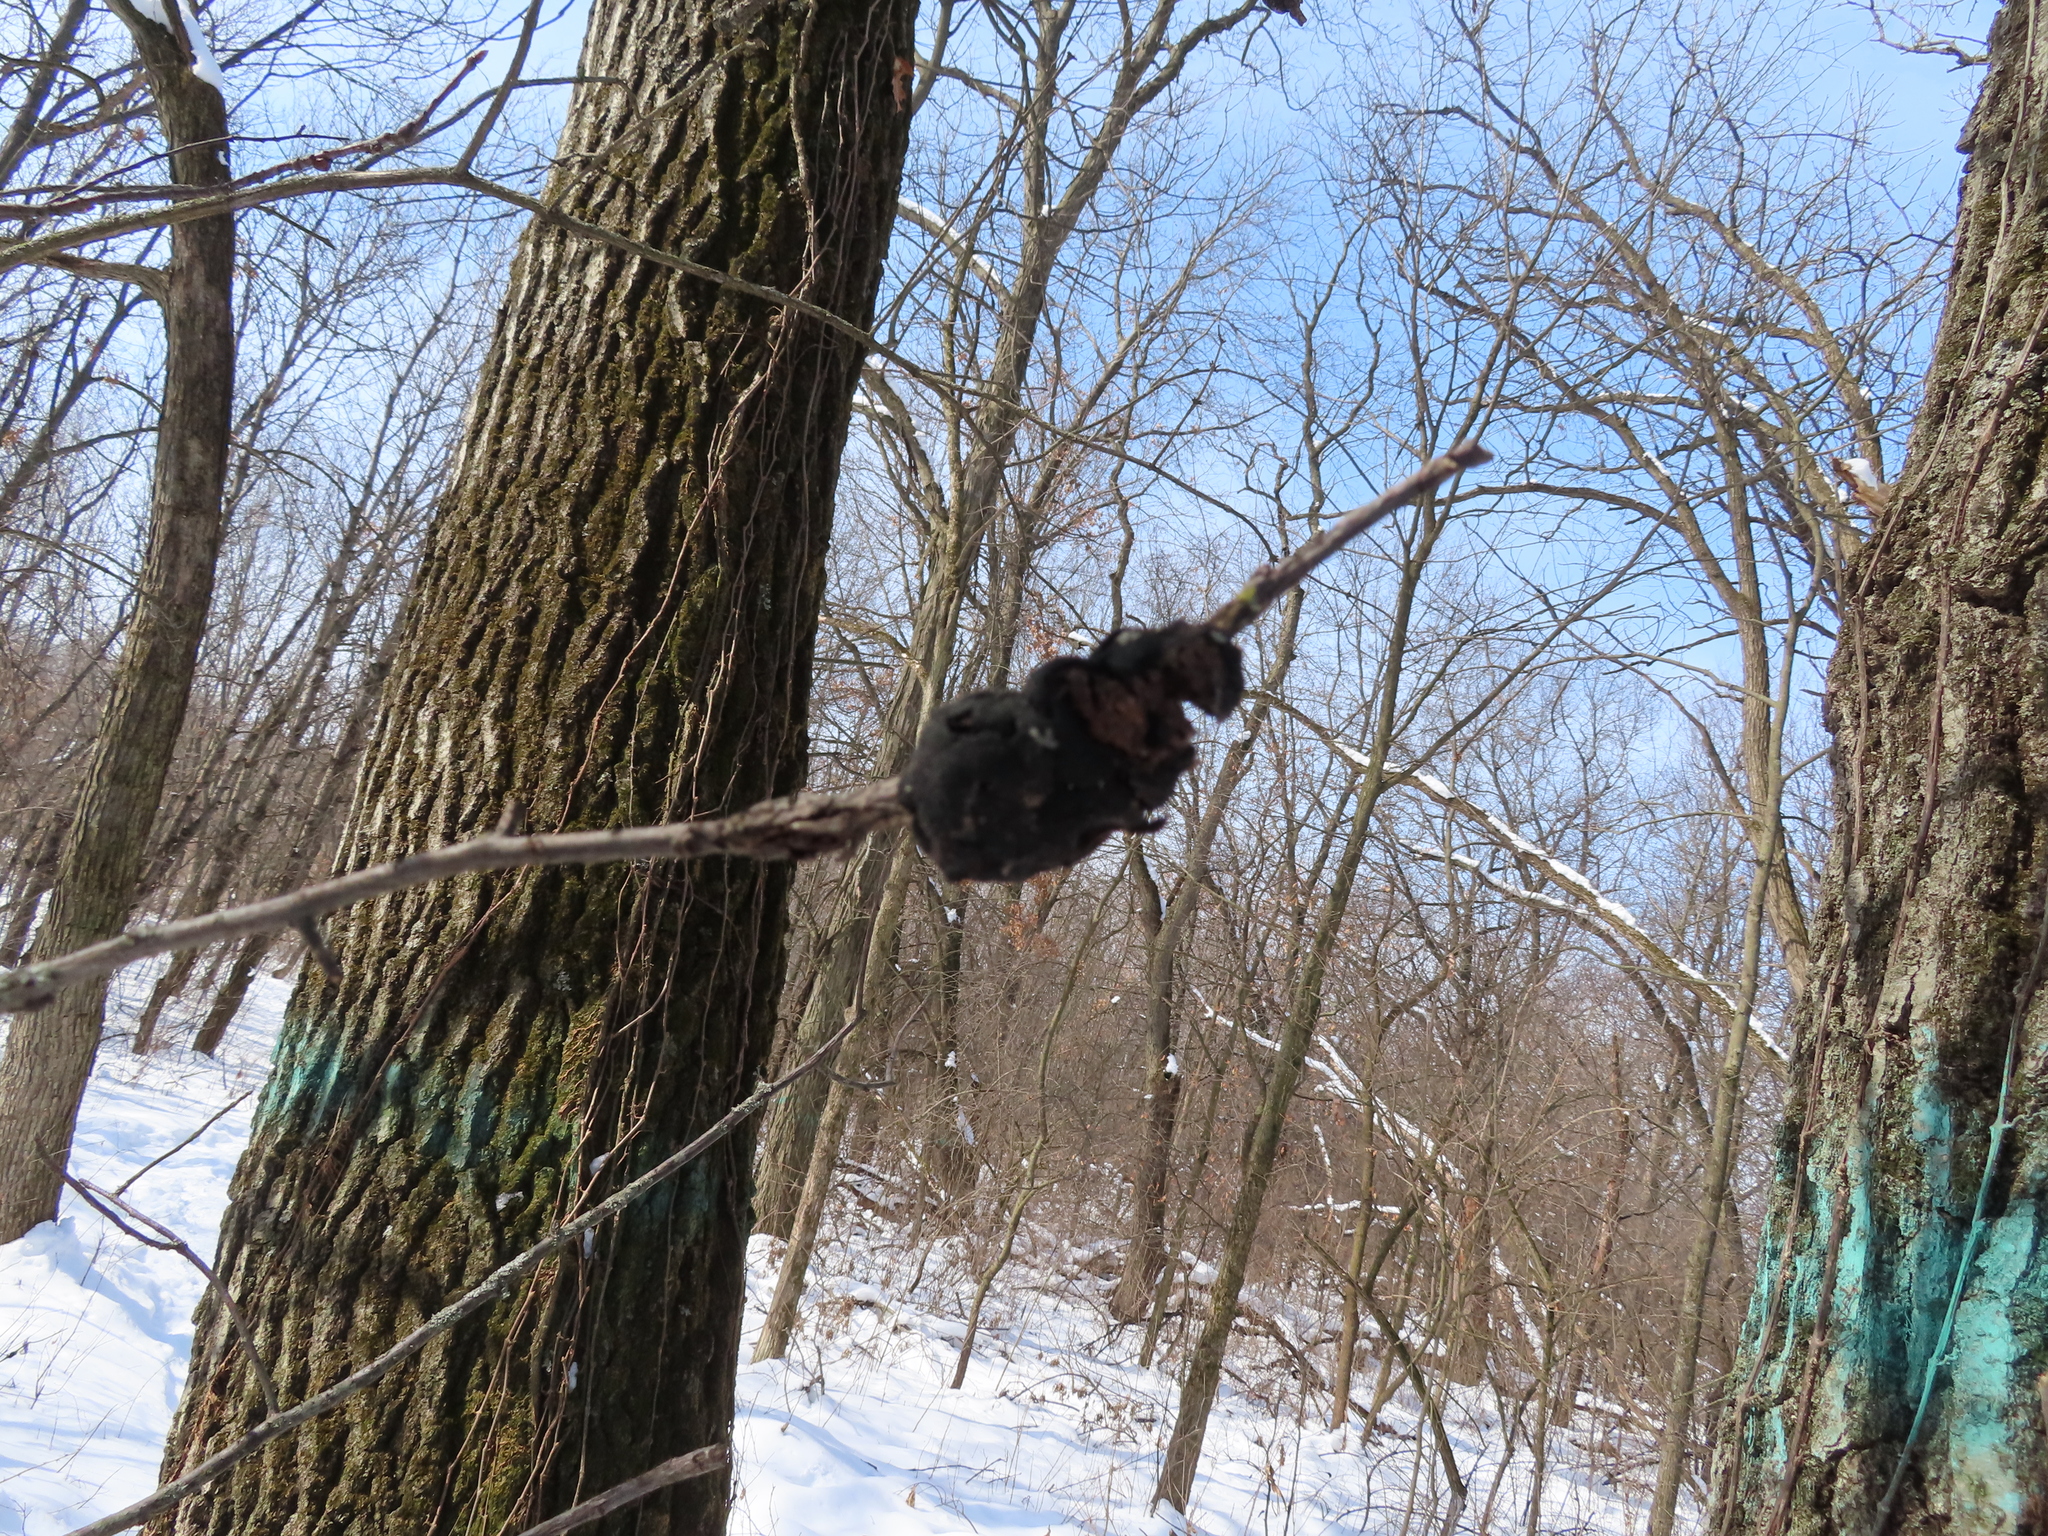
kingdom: Fungi
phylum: Ascomycota
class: Dothideomycetes
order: Venturiales
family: Venturiaceae
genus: Apiosporina
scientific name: Apiosporina morbosa
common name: Black knot
